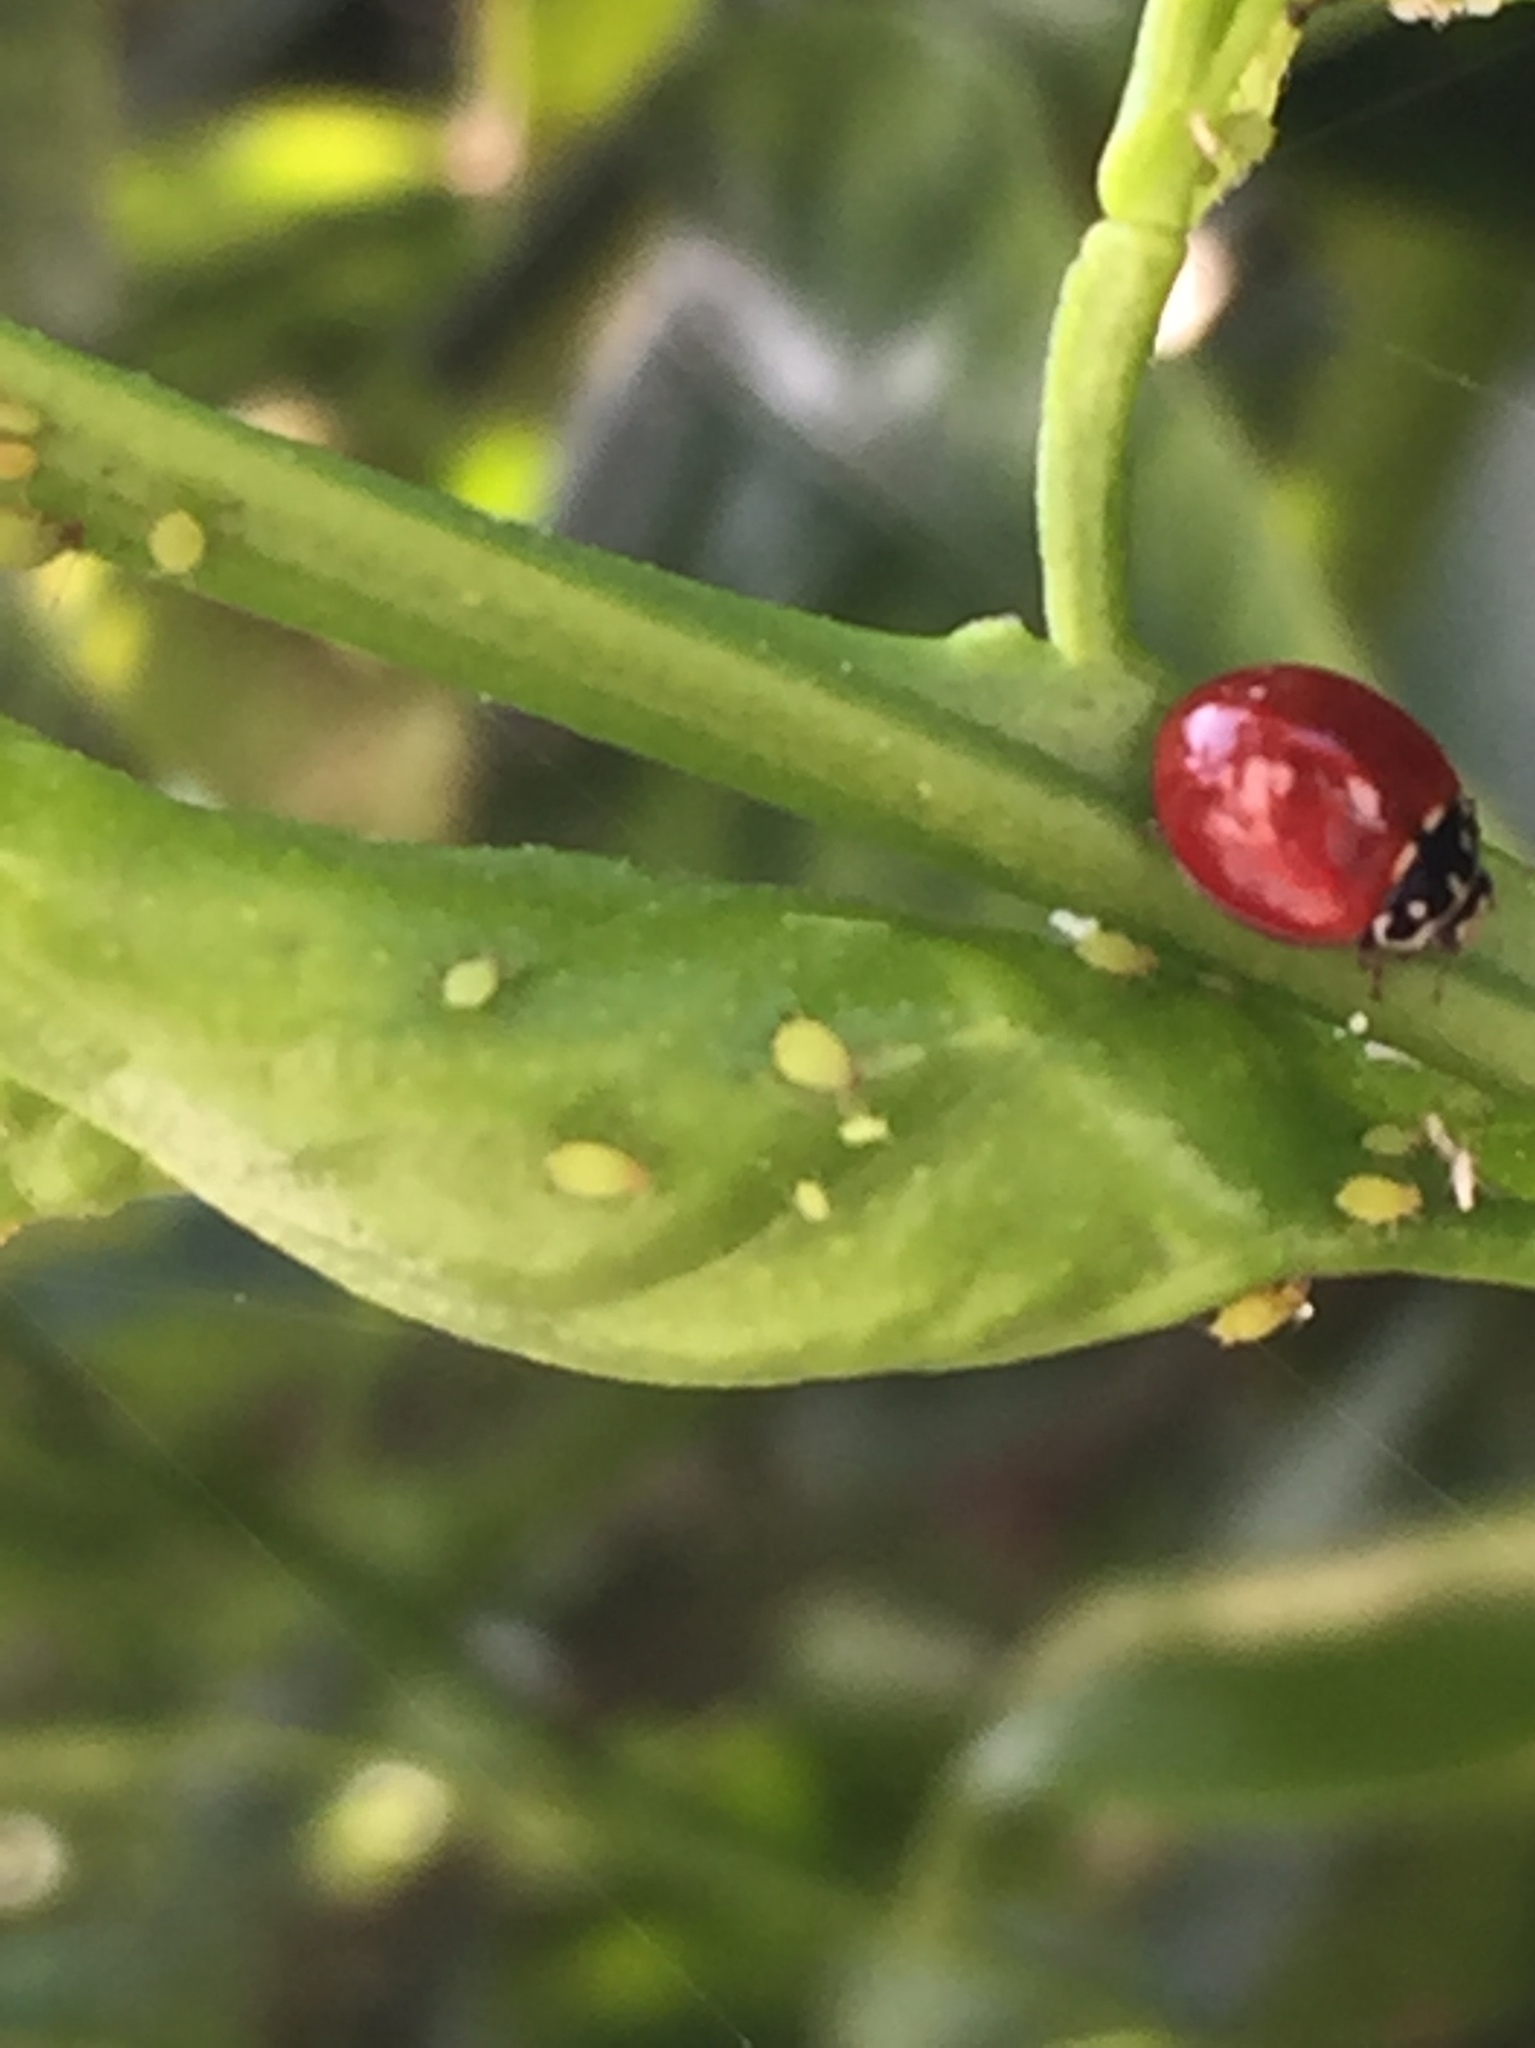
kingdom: Animalia
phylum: Arthropoda
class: Insecta
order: Coleoptera
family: Coccinellidae
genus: Cycloneda
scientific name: Cycloneda sanguinea
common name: Ladybird beetle
